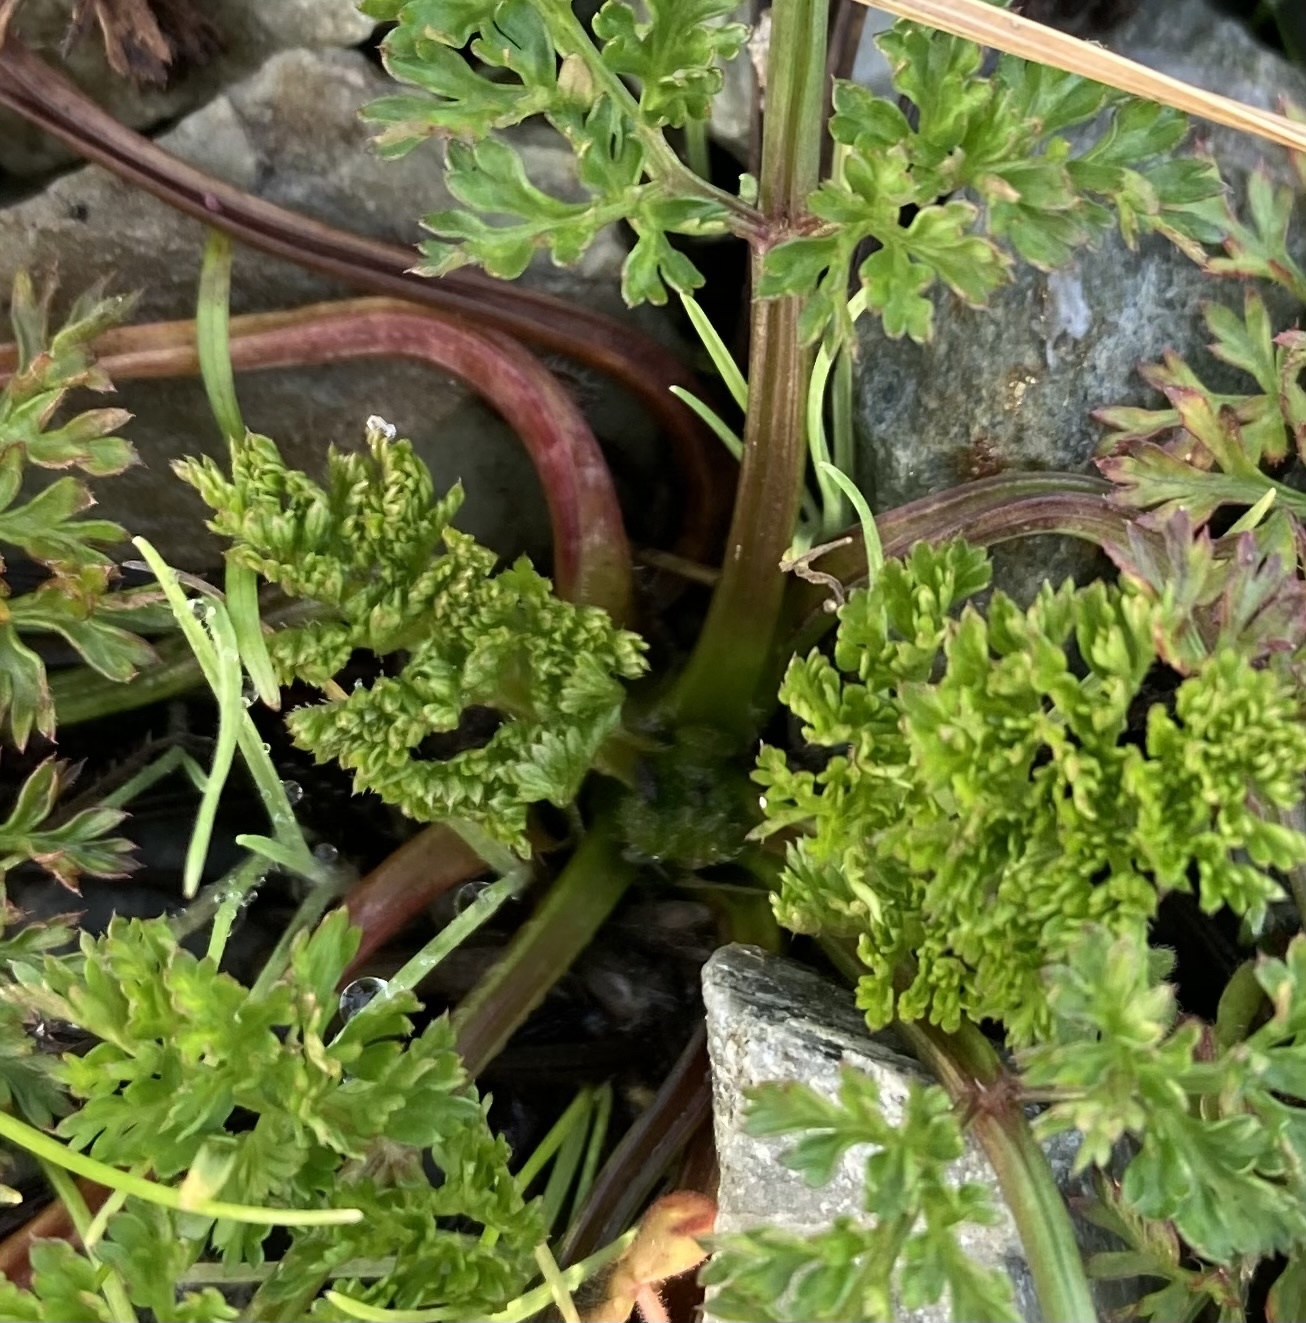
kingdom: Plantae
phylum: Tracheophyta
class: Magnoliopsida
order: Apiales
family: Apiaceae
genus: Daucus
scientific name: Daucus carota
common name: Wild carrot
